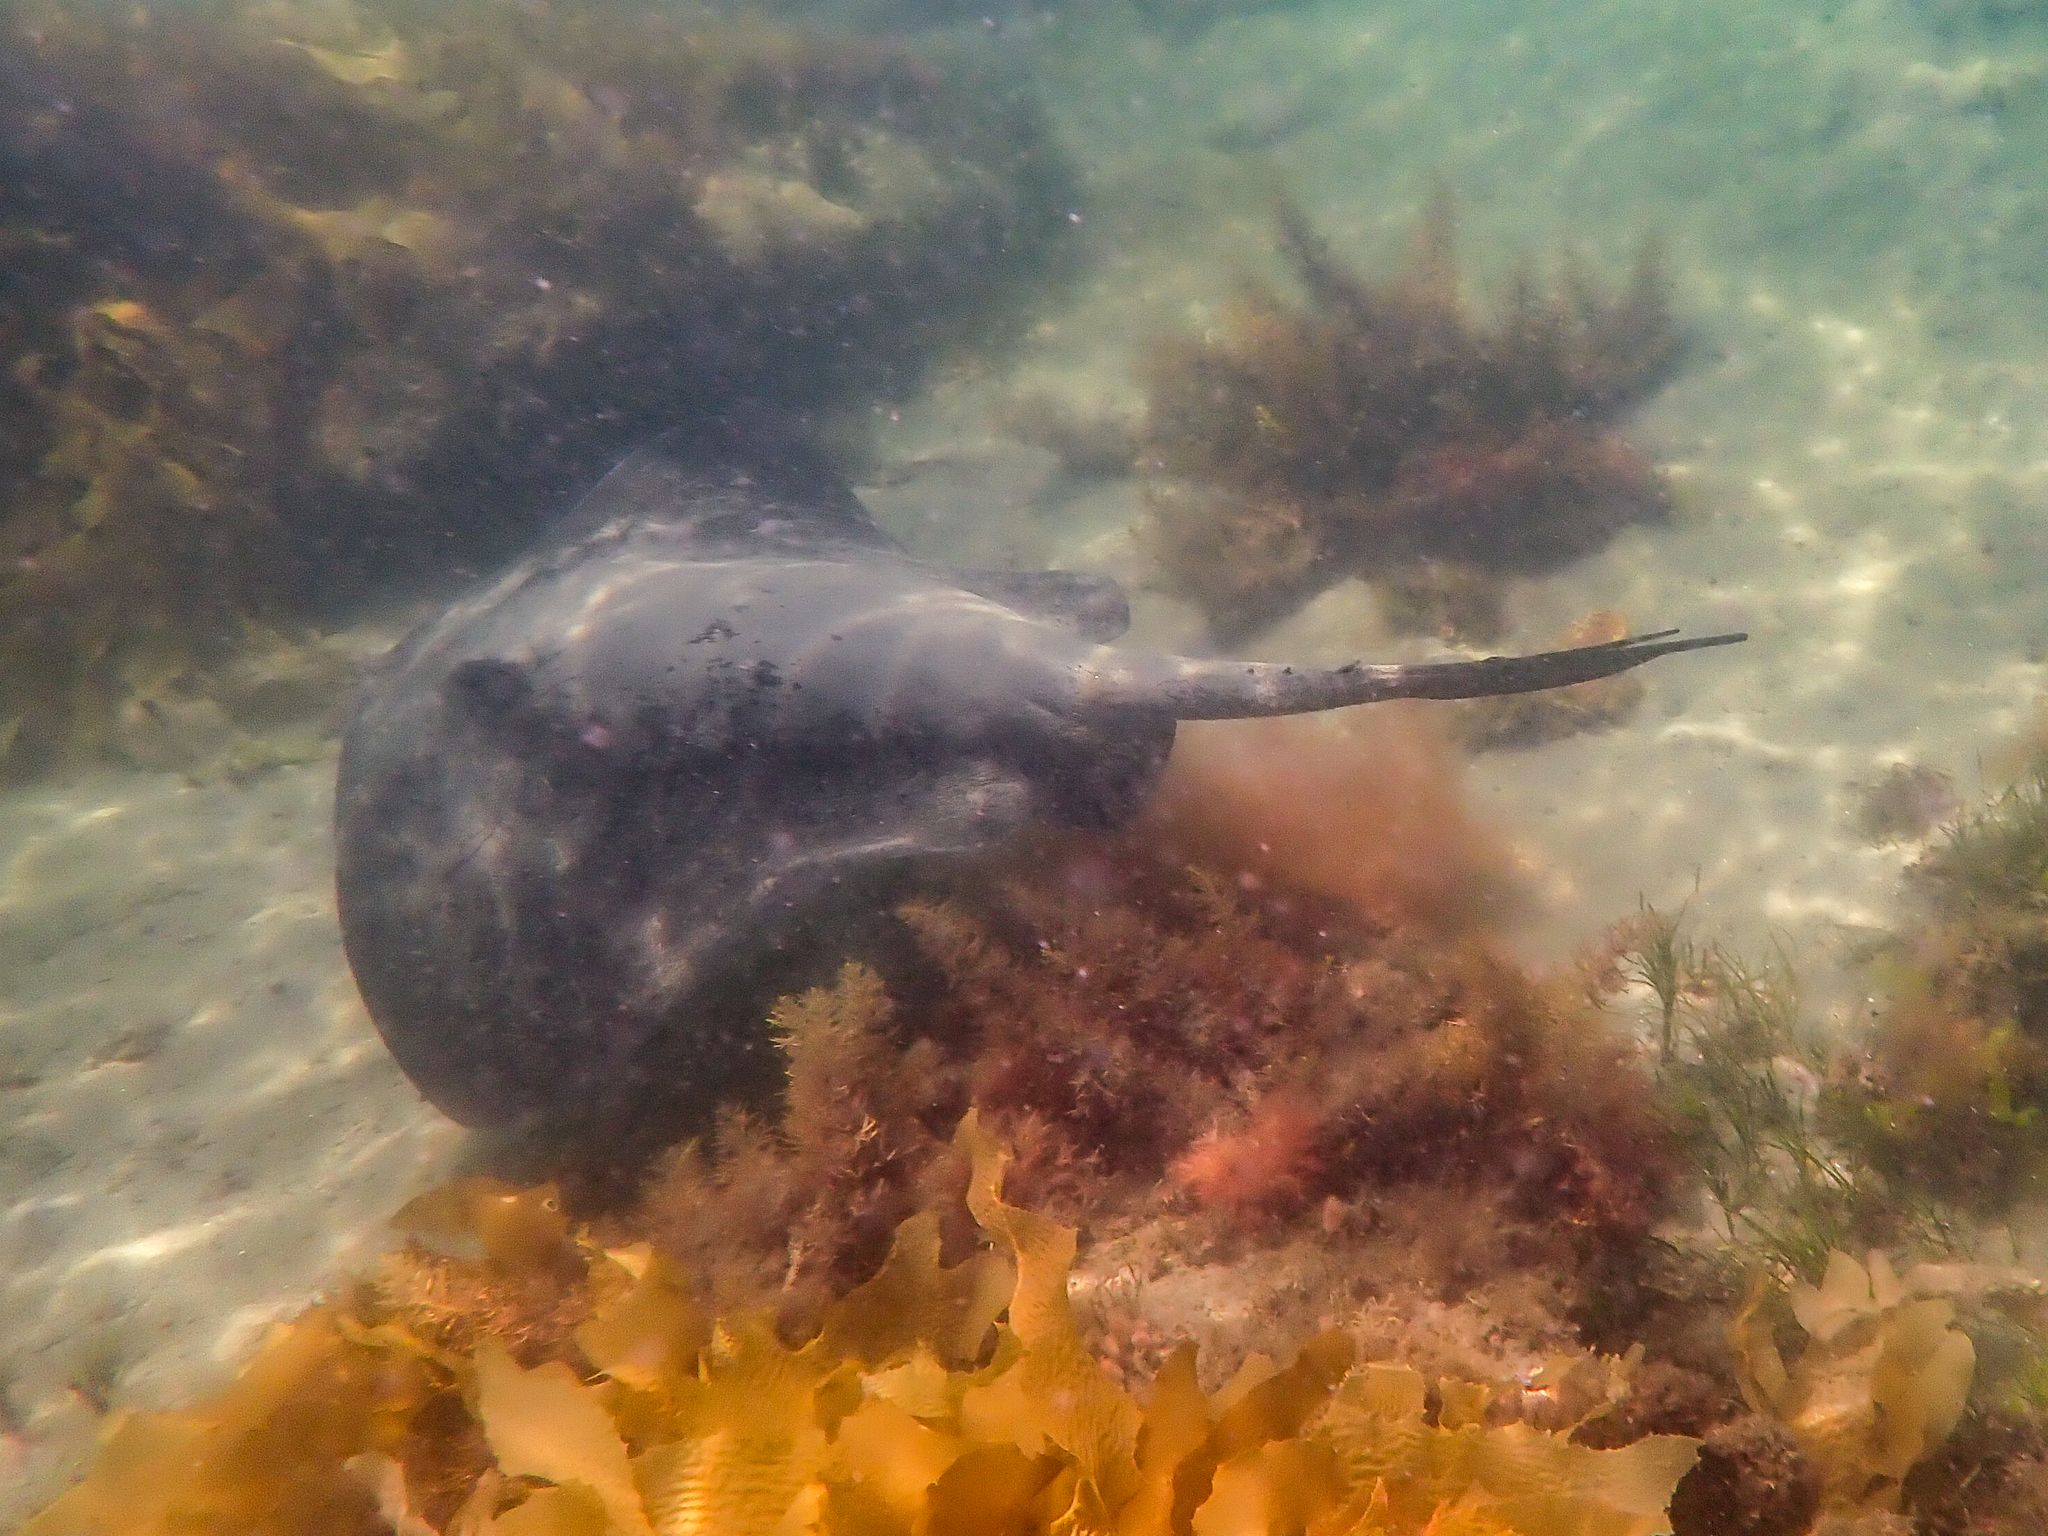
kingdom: Animalia
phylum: Chordata
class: Elasmobranchii
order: Myliobatiformes
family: Dasyatidae
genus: Bathytoshia
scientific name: Bathytoshia brevicaudata
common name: Short-tail stingray
